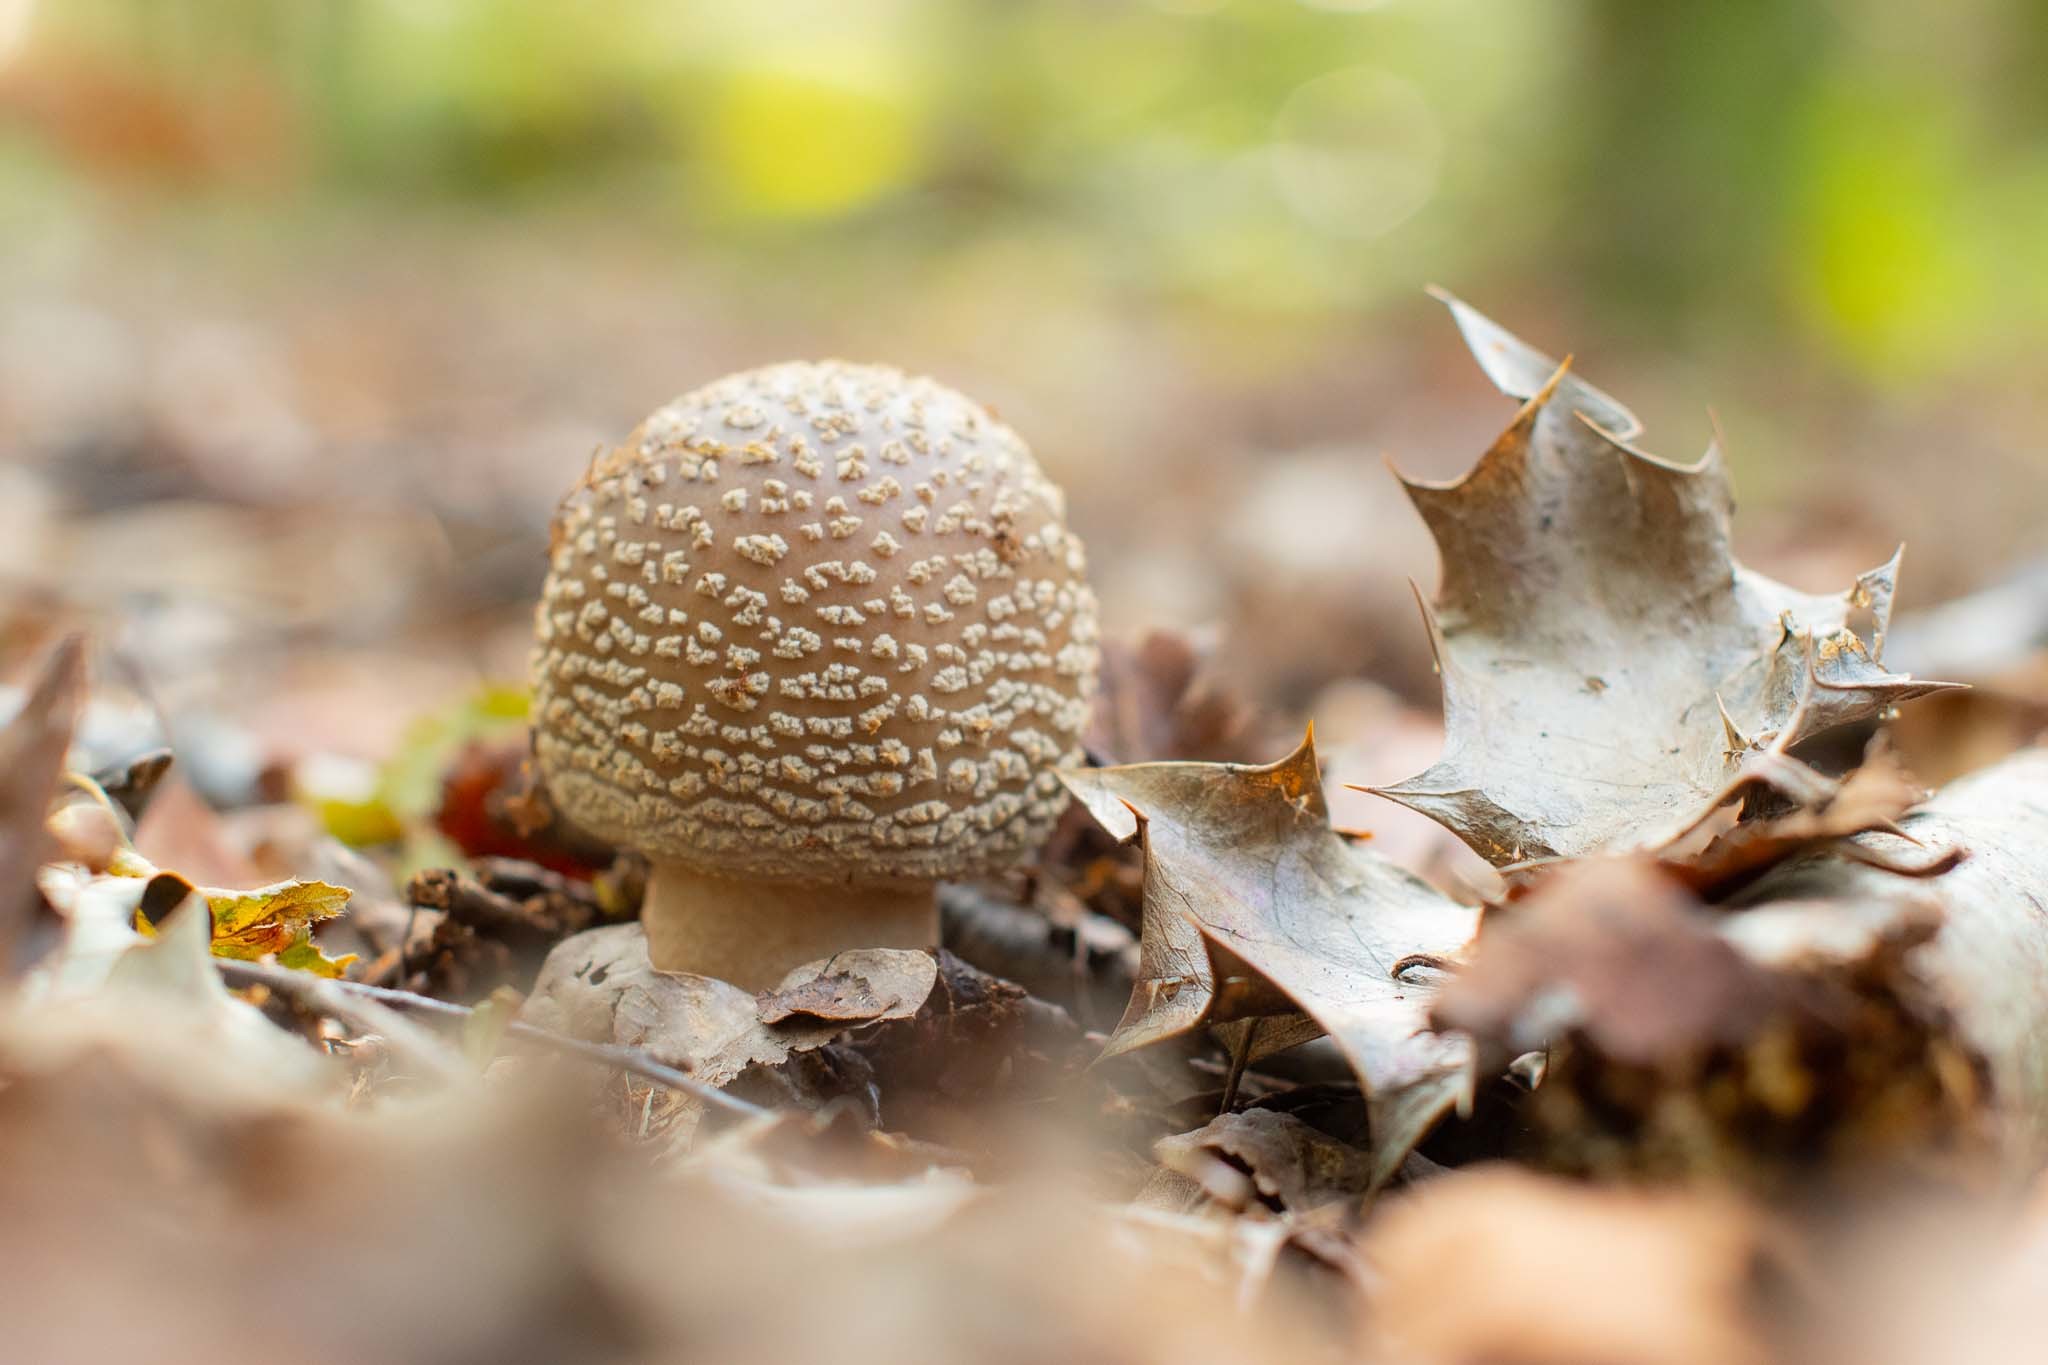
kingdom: Fungi
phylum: Basidiomycota
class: Agaricomycetes
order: Agaricales
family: Amanitaceae
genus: Amanita
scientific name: Amanita excelsa
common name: European false blusher
